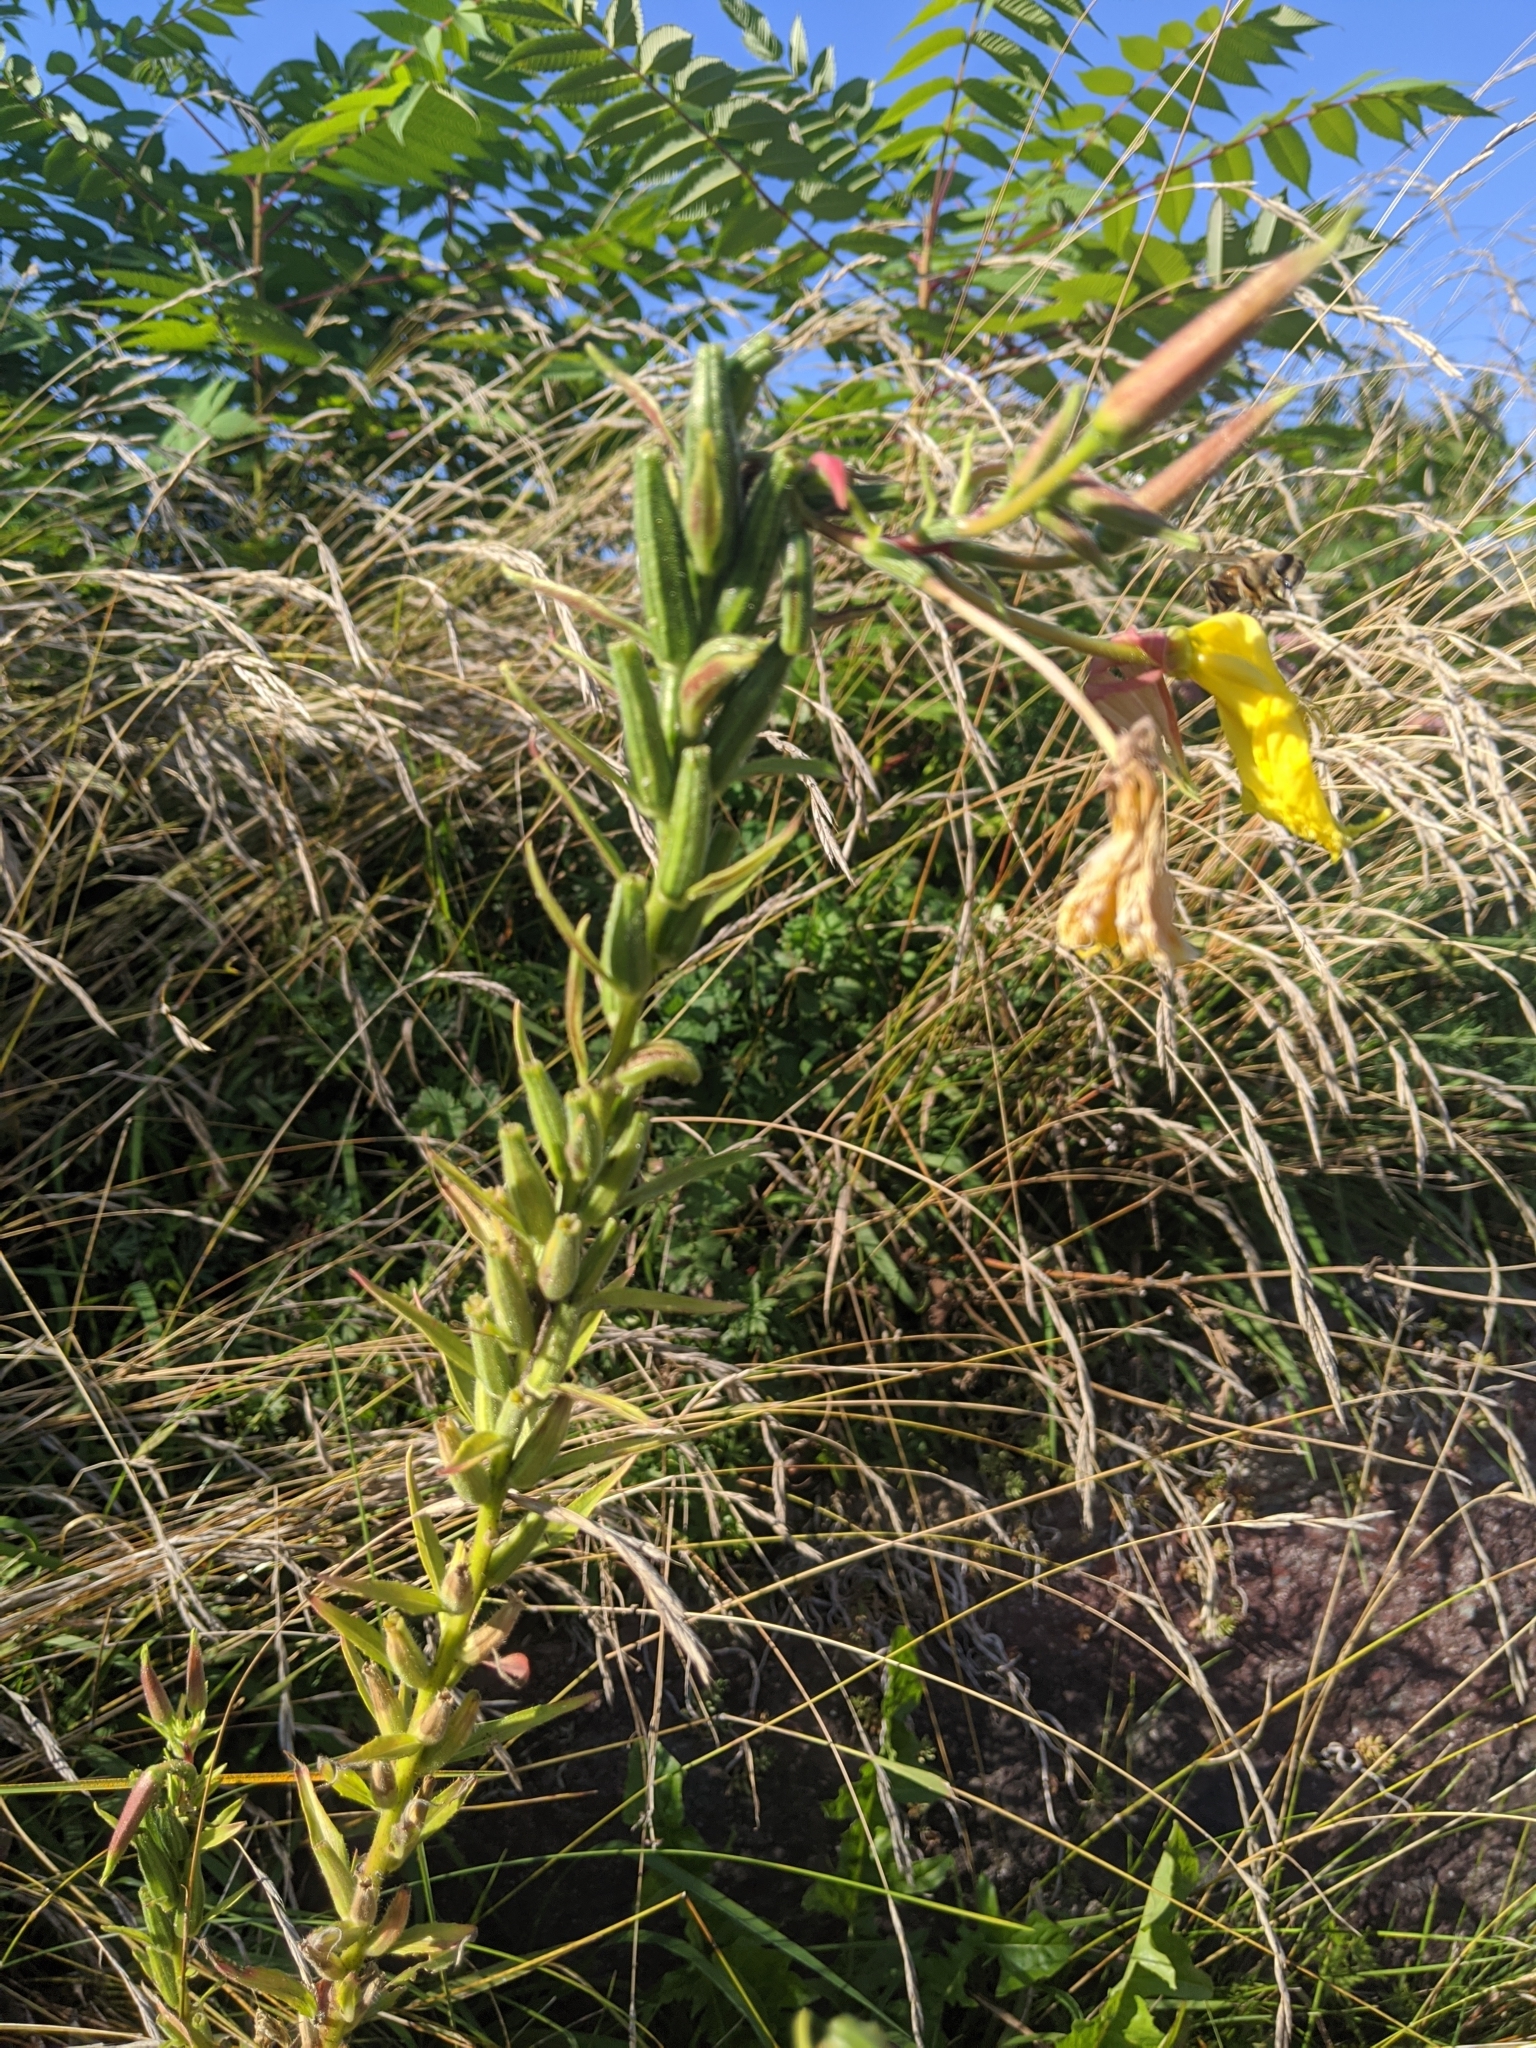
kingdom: Plantae
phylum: Tracheophyta
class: Magnoliopsida
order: Myrtales
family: Onagraceae
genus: Oenothera
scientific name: Oenothera glazioviana
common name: Large-flowered evening-primrose
